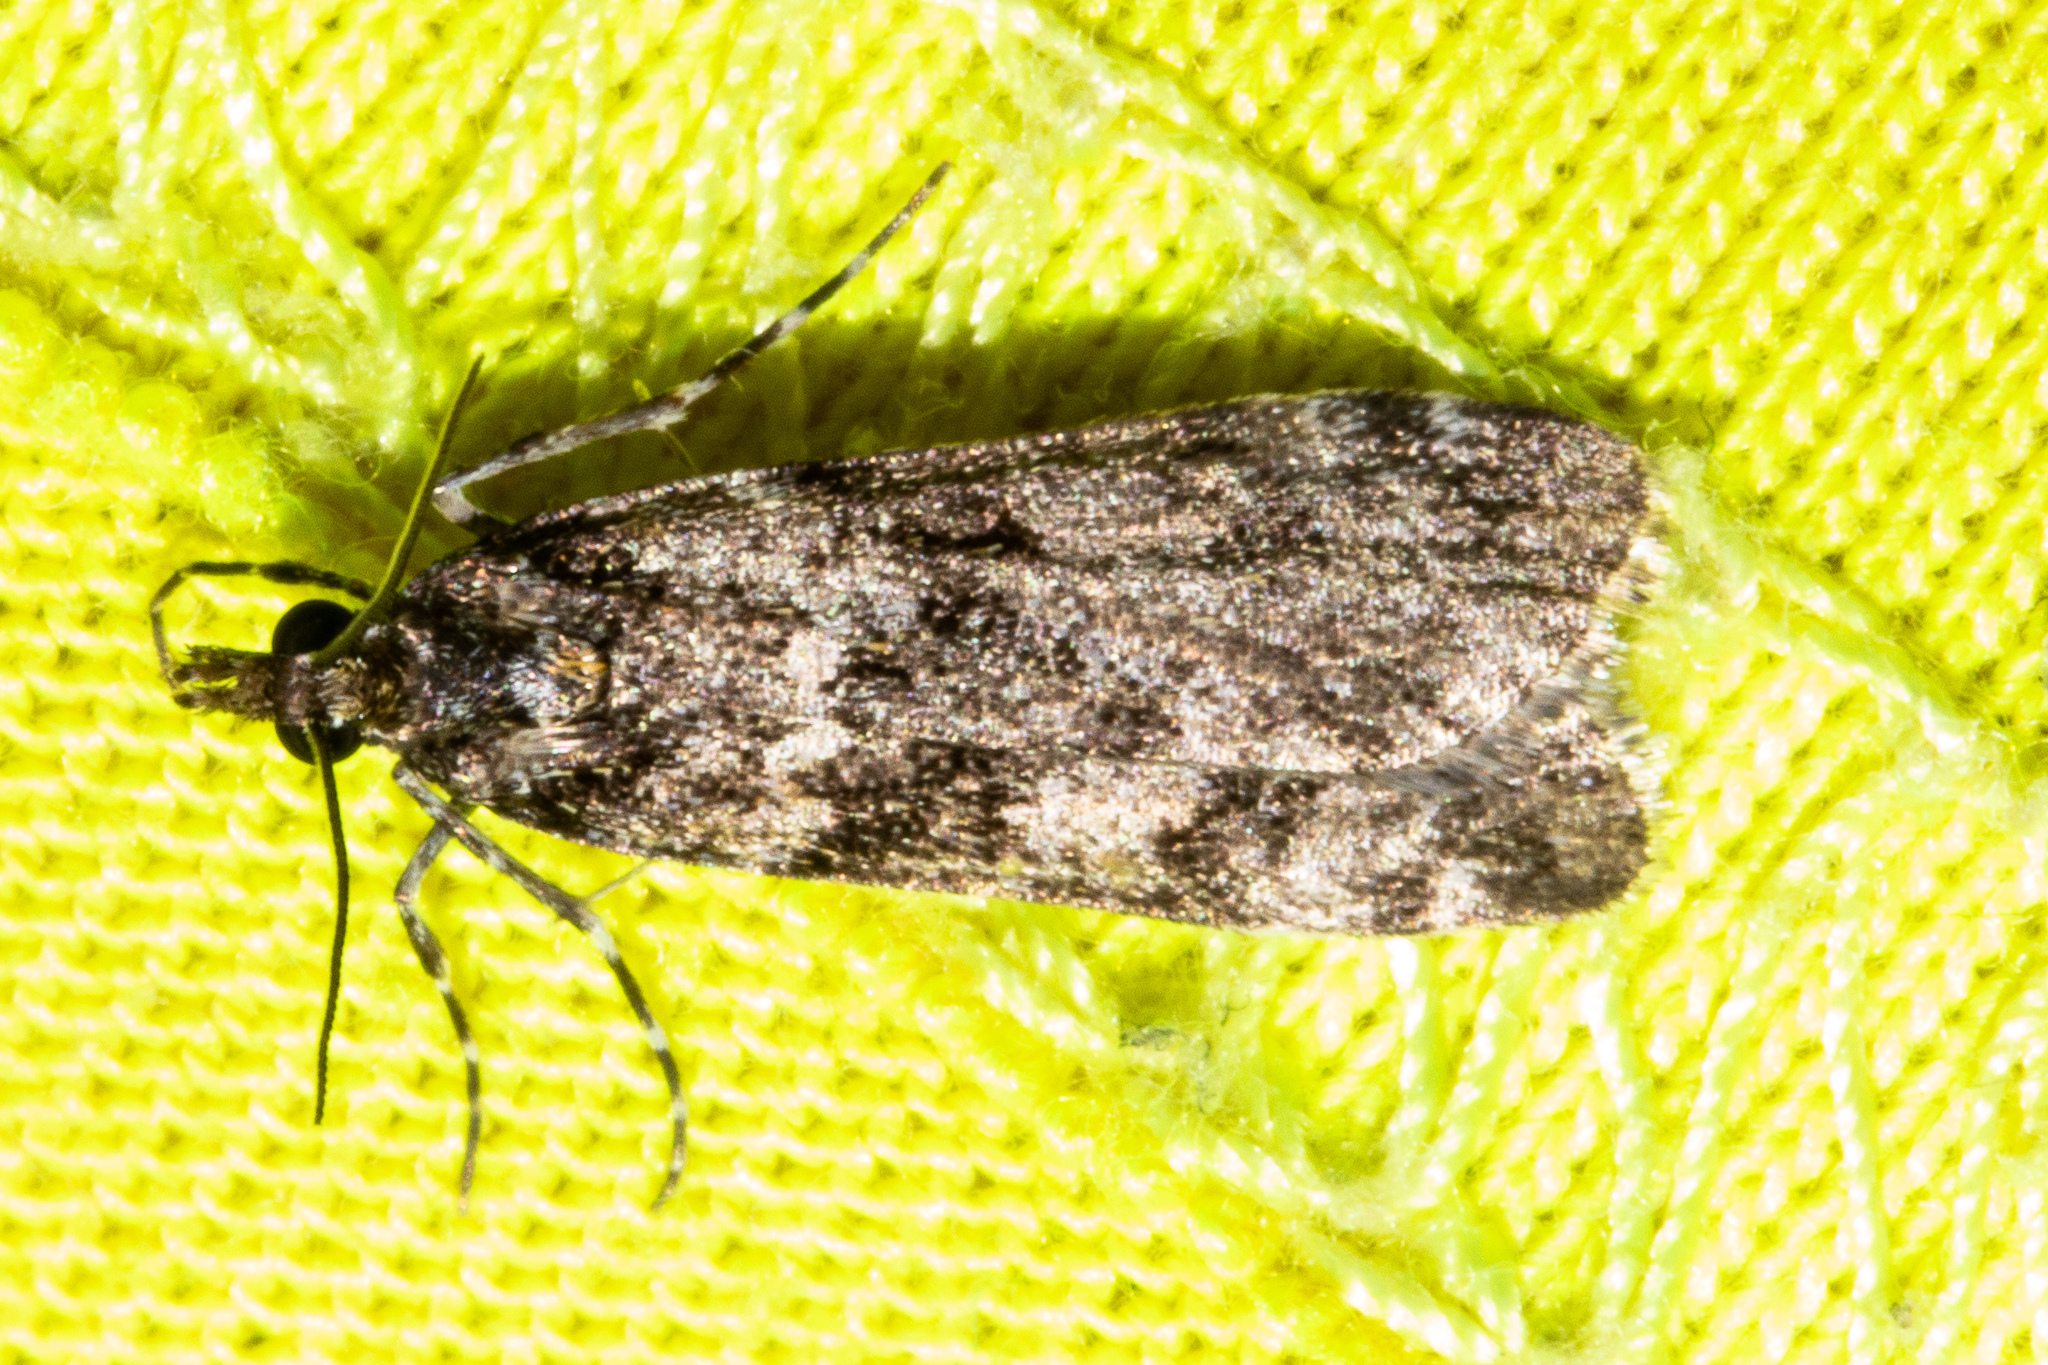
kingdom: Animalia
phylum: Arthropoda
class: Insecta
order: Lepidoptera
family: Crambidae
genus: Eudonia
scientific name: Eudonia philerga
